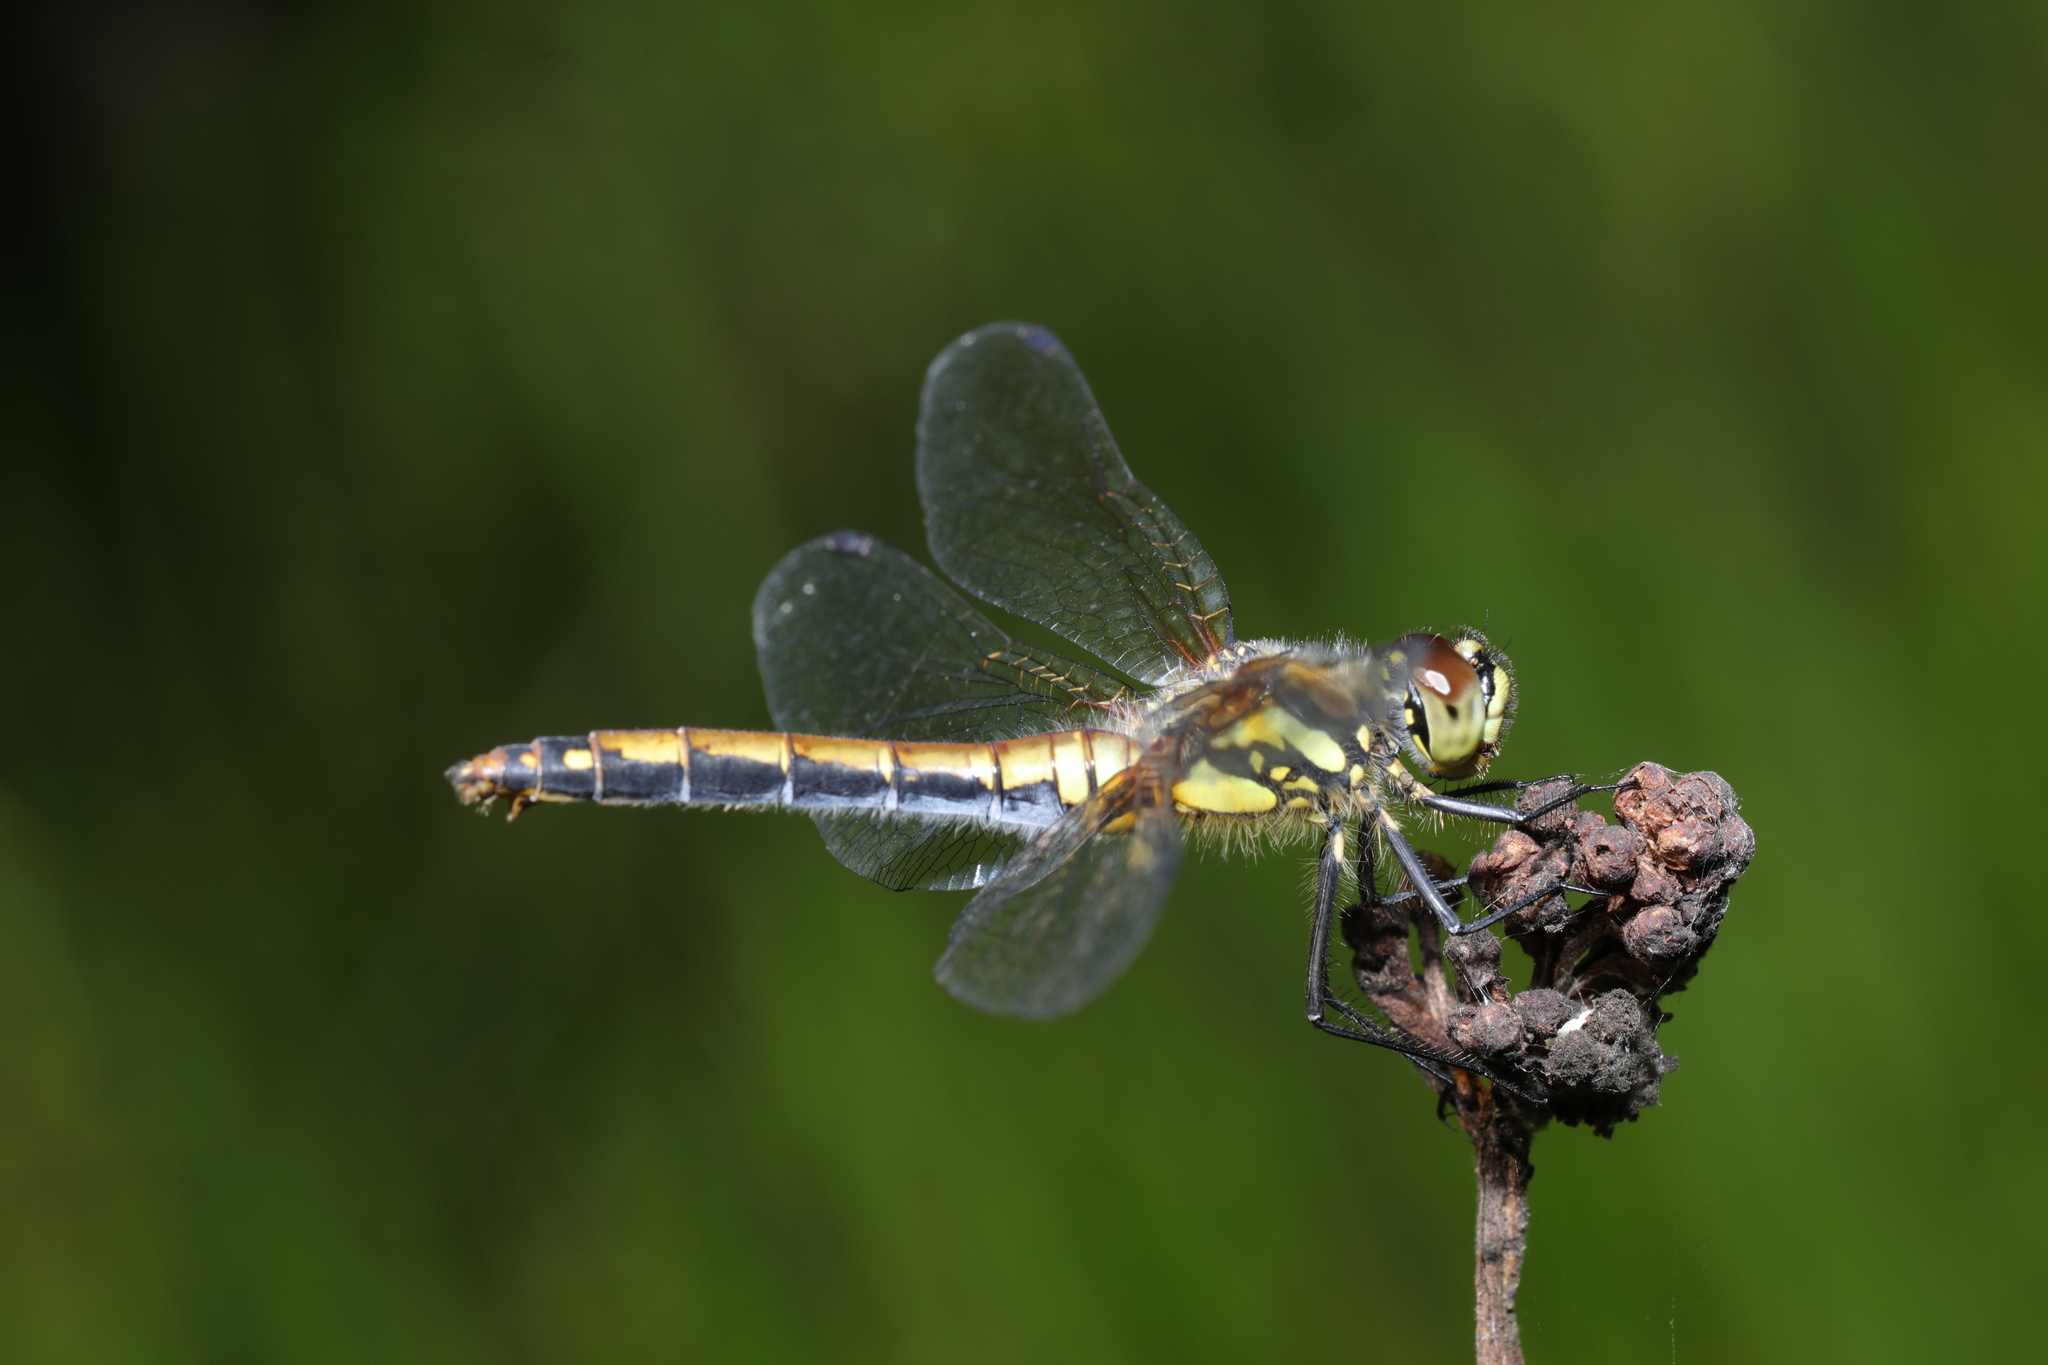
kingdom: Animalia
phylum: Arthropoda
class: Insecta
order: Odonata
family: Libellulidae
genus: Sympetrum
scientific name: Sympetrum danae
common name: Black darter
